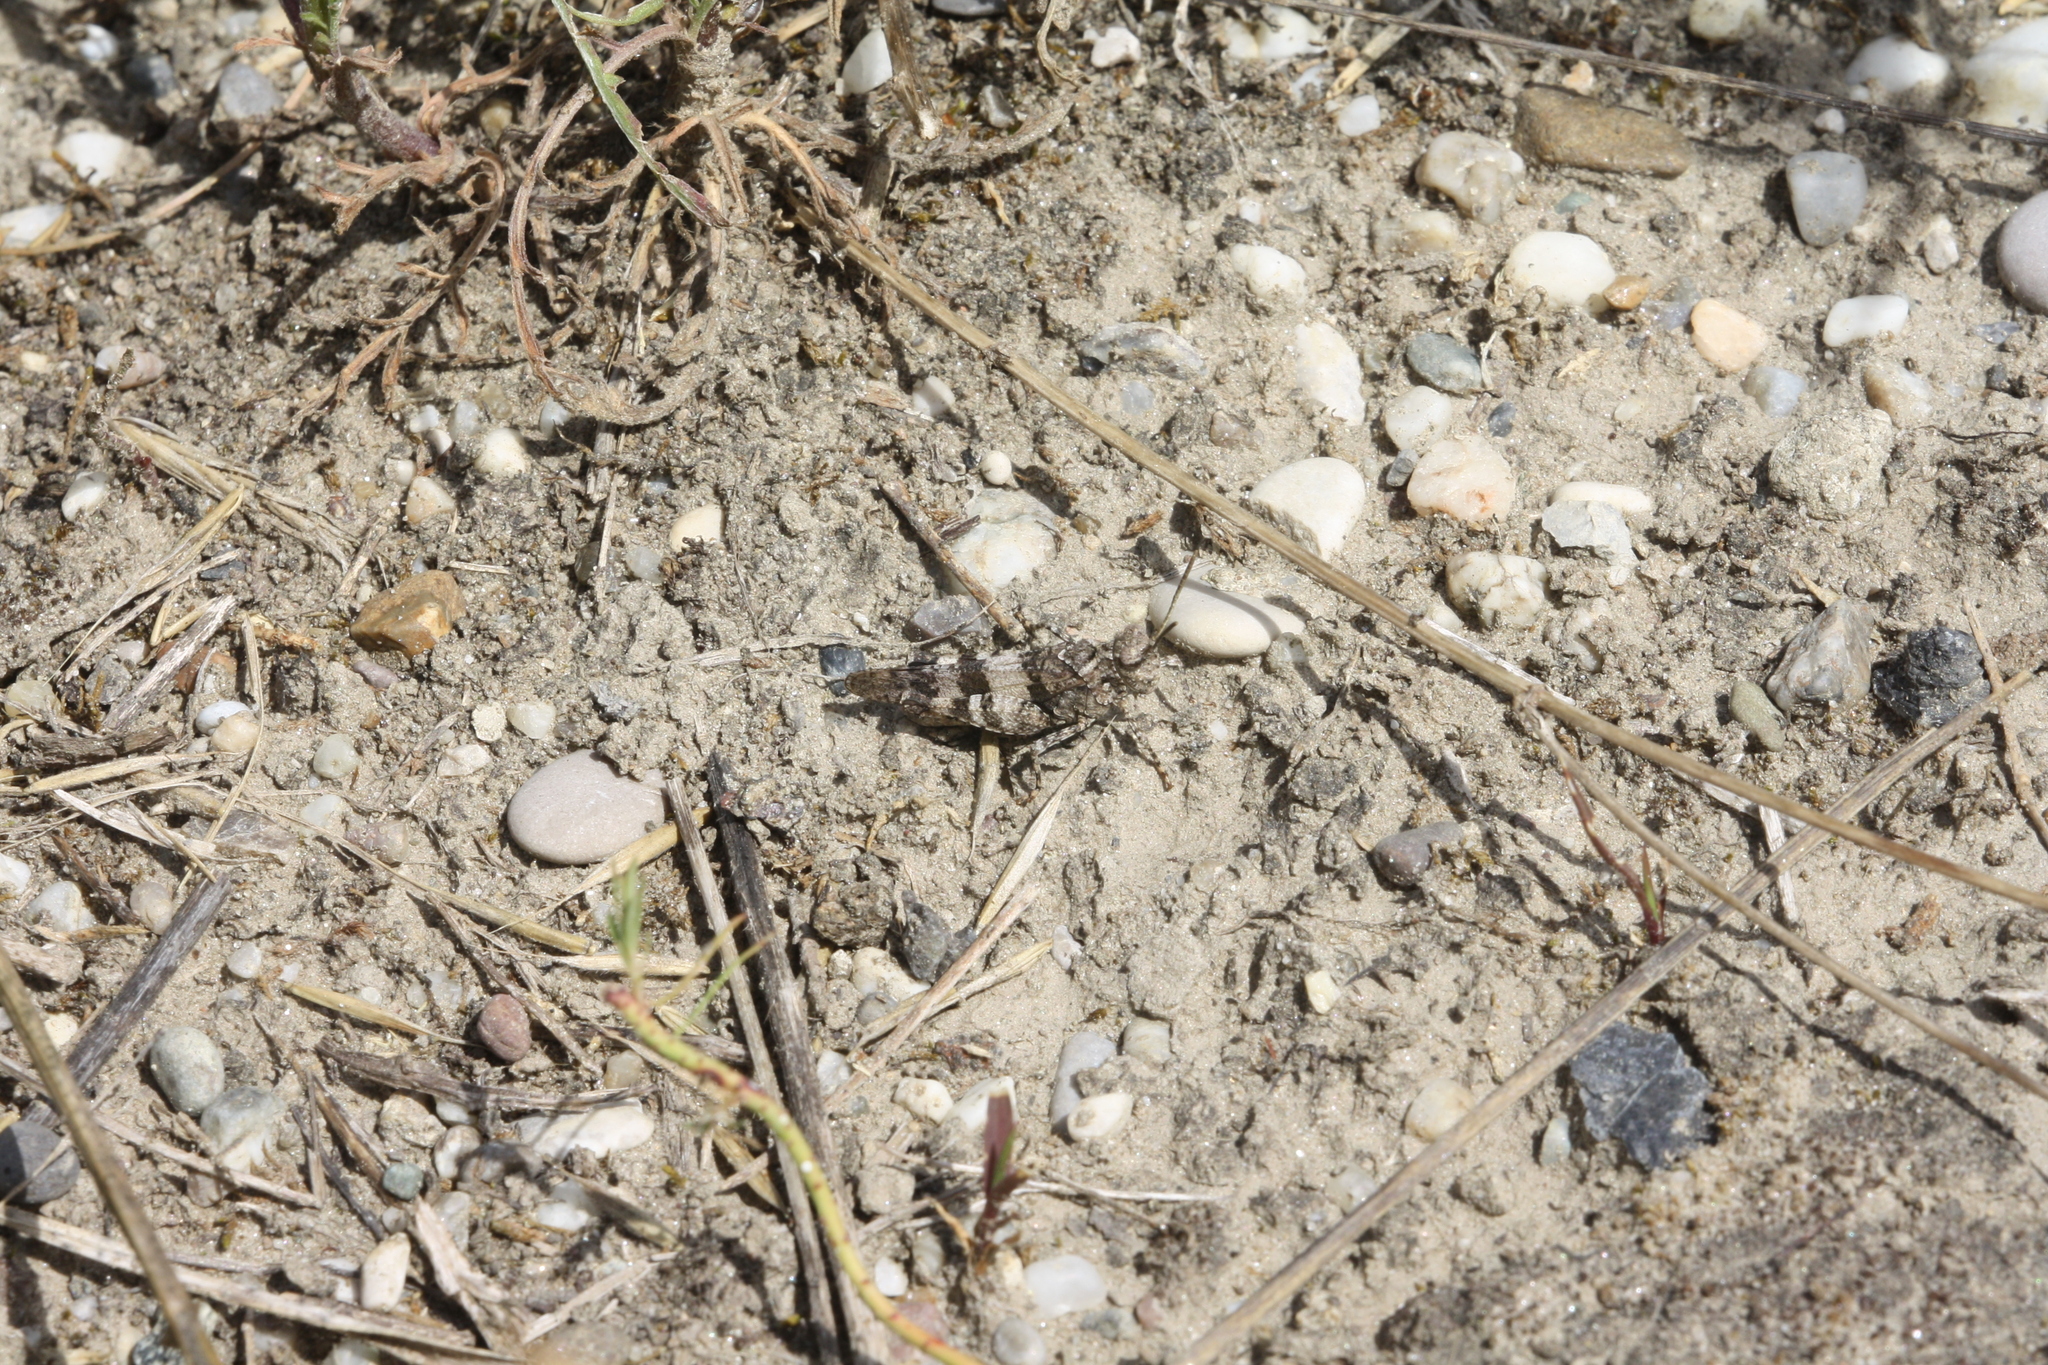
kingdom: Animalia
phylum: Arthropoda
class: Insecta
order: Orthoptera
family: Acrididae
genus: Oedipoda
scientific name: Oedipoda caerulescens
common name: Blue-winged grasshopper
